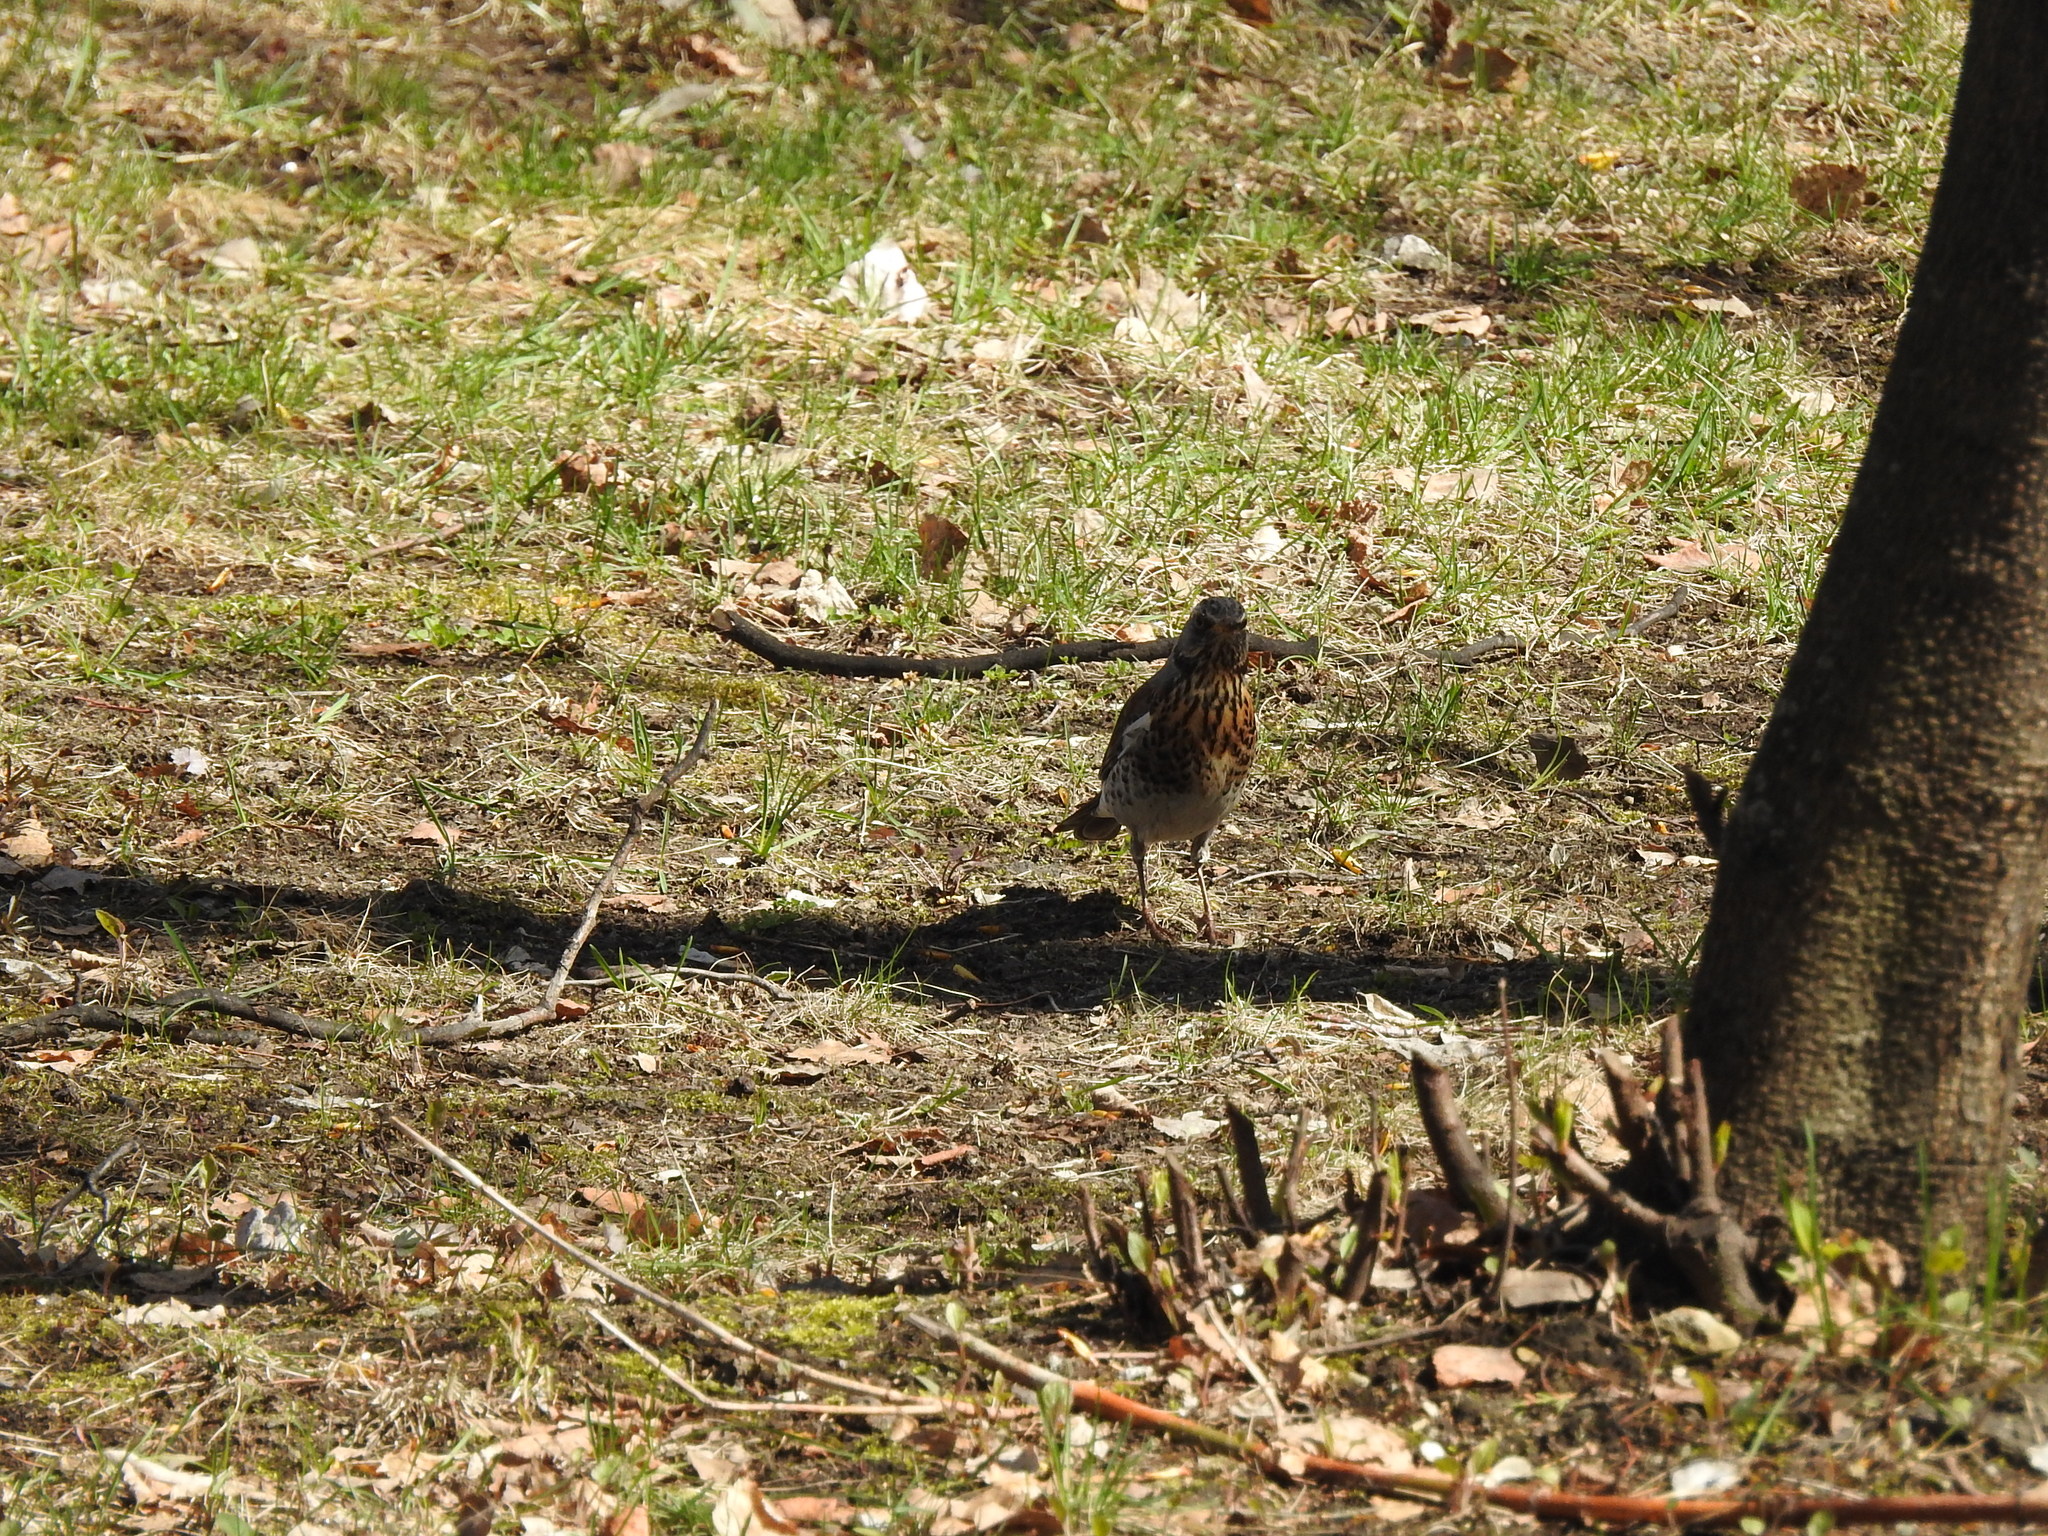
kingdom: Animalia
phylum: Chordata
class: Aves
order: Passeriformes
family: Turdidae
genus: Turdus
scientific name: Turdus pilaris
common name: Fieldfare
